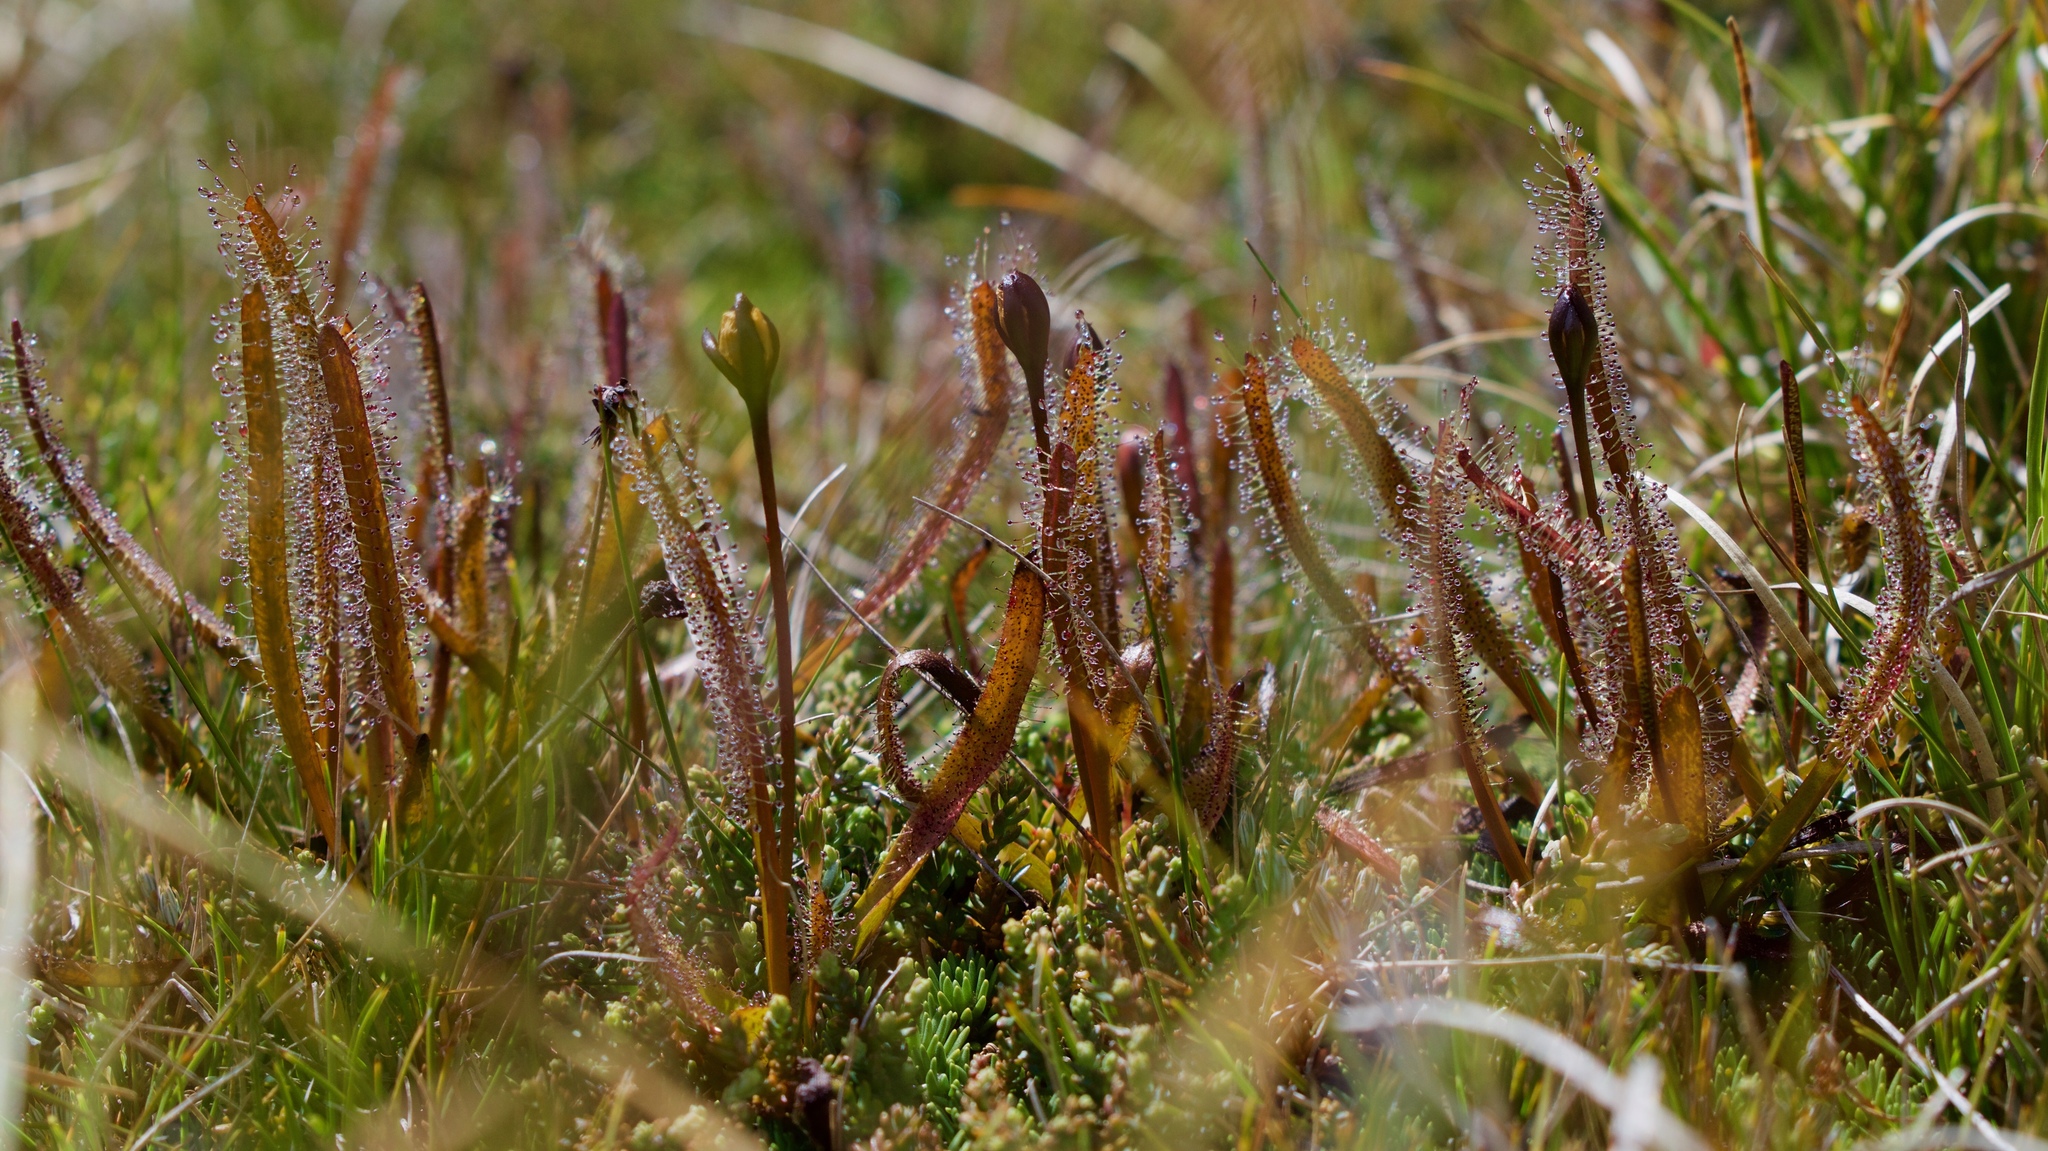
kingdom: Plantae
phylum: Tracheophyta
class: Magnoliopsida
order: Caryophyllales
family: Droseraceae
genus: Drosera
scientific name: Drosera arcturi
